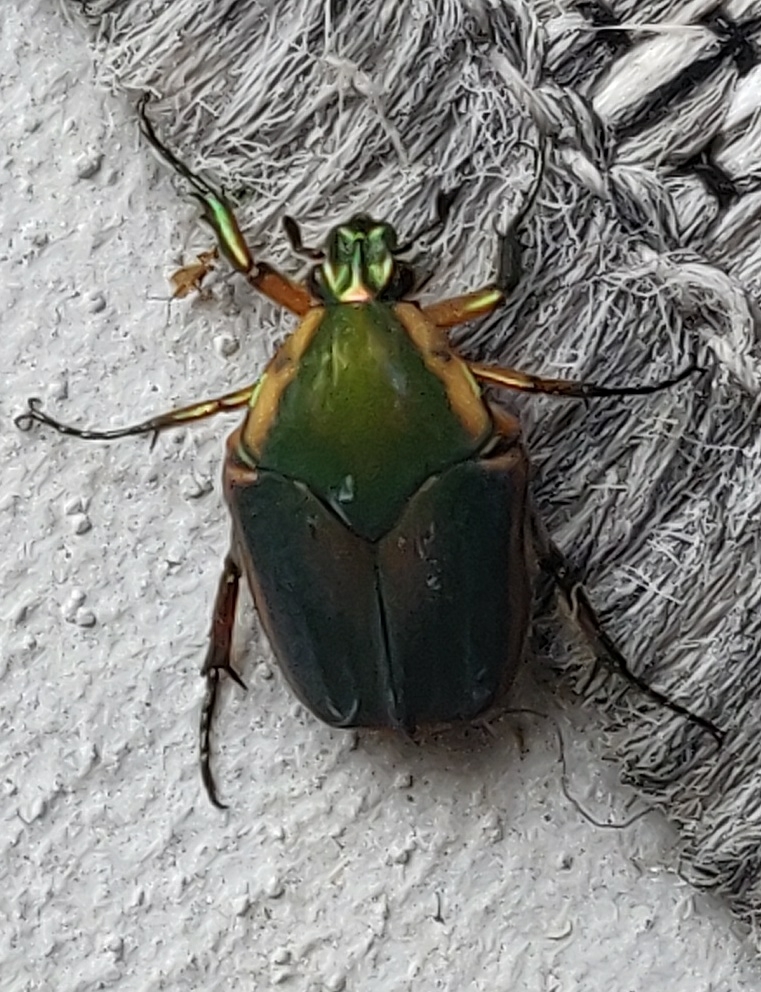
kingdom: Animalia
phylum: Arthropoda
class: Insecta
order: Coleoptera
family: Scarabaeidae
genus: Cotinis
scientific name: Cotinis nitida
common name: Common green june beetle
